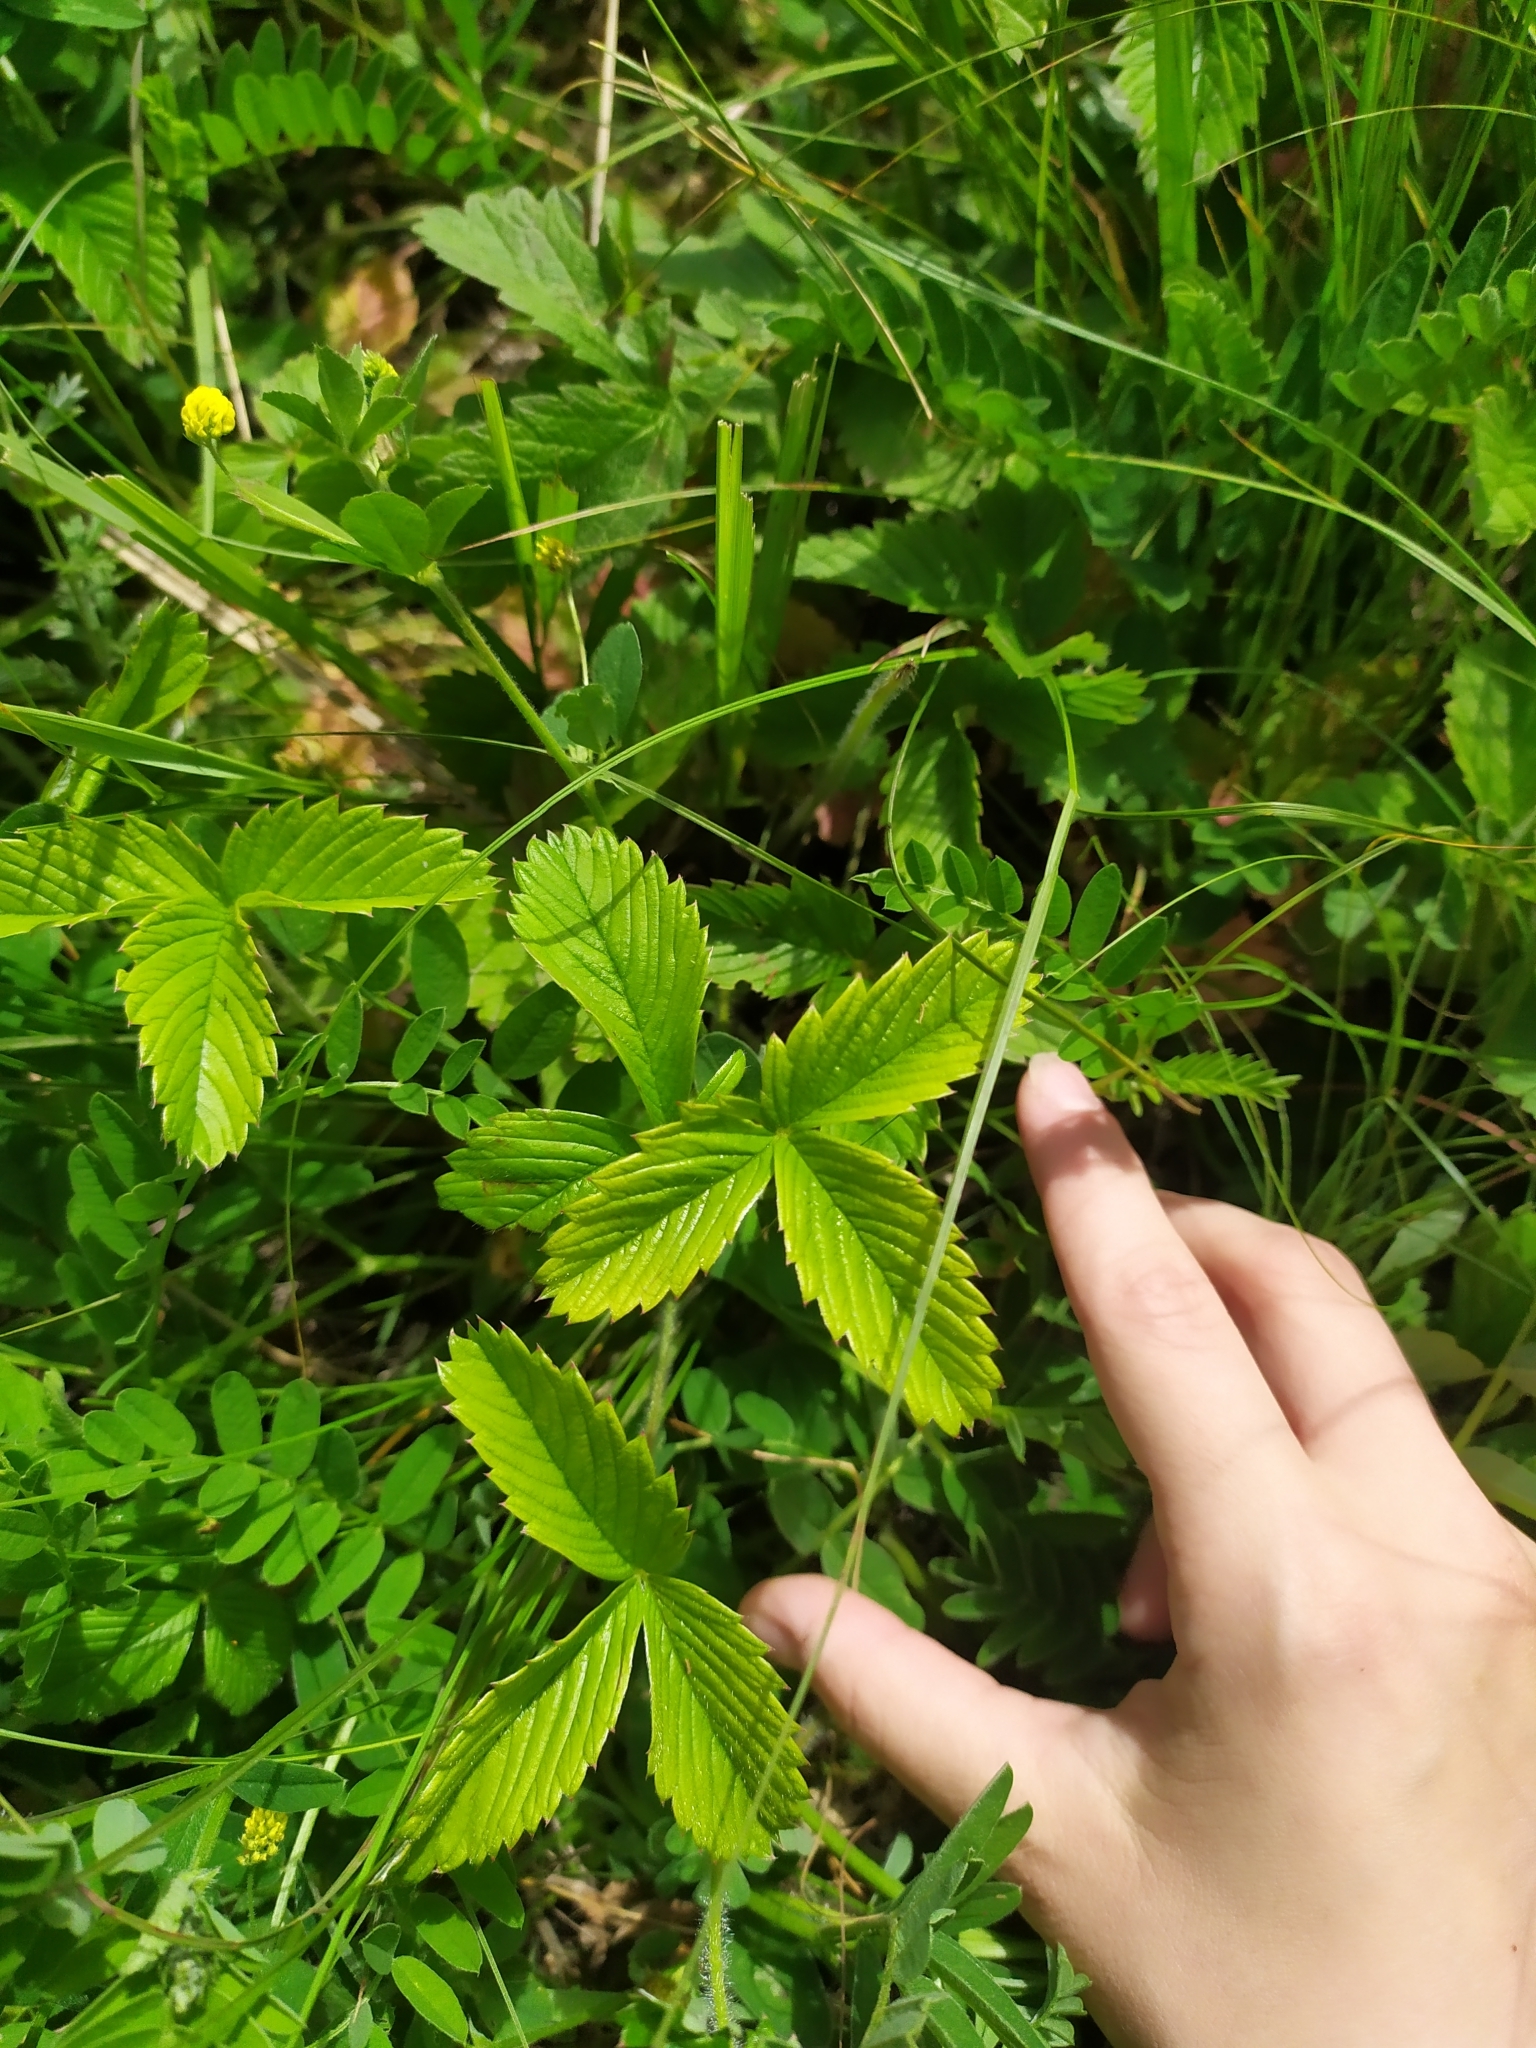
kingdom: Plantae
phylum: Tracheophyta
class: Magnoliopsida
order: Rosales
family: Rosaceae
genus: Fragaria
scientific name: Fragaria viridis
